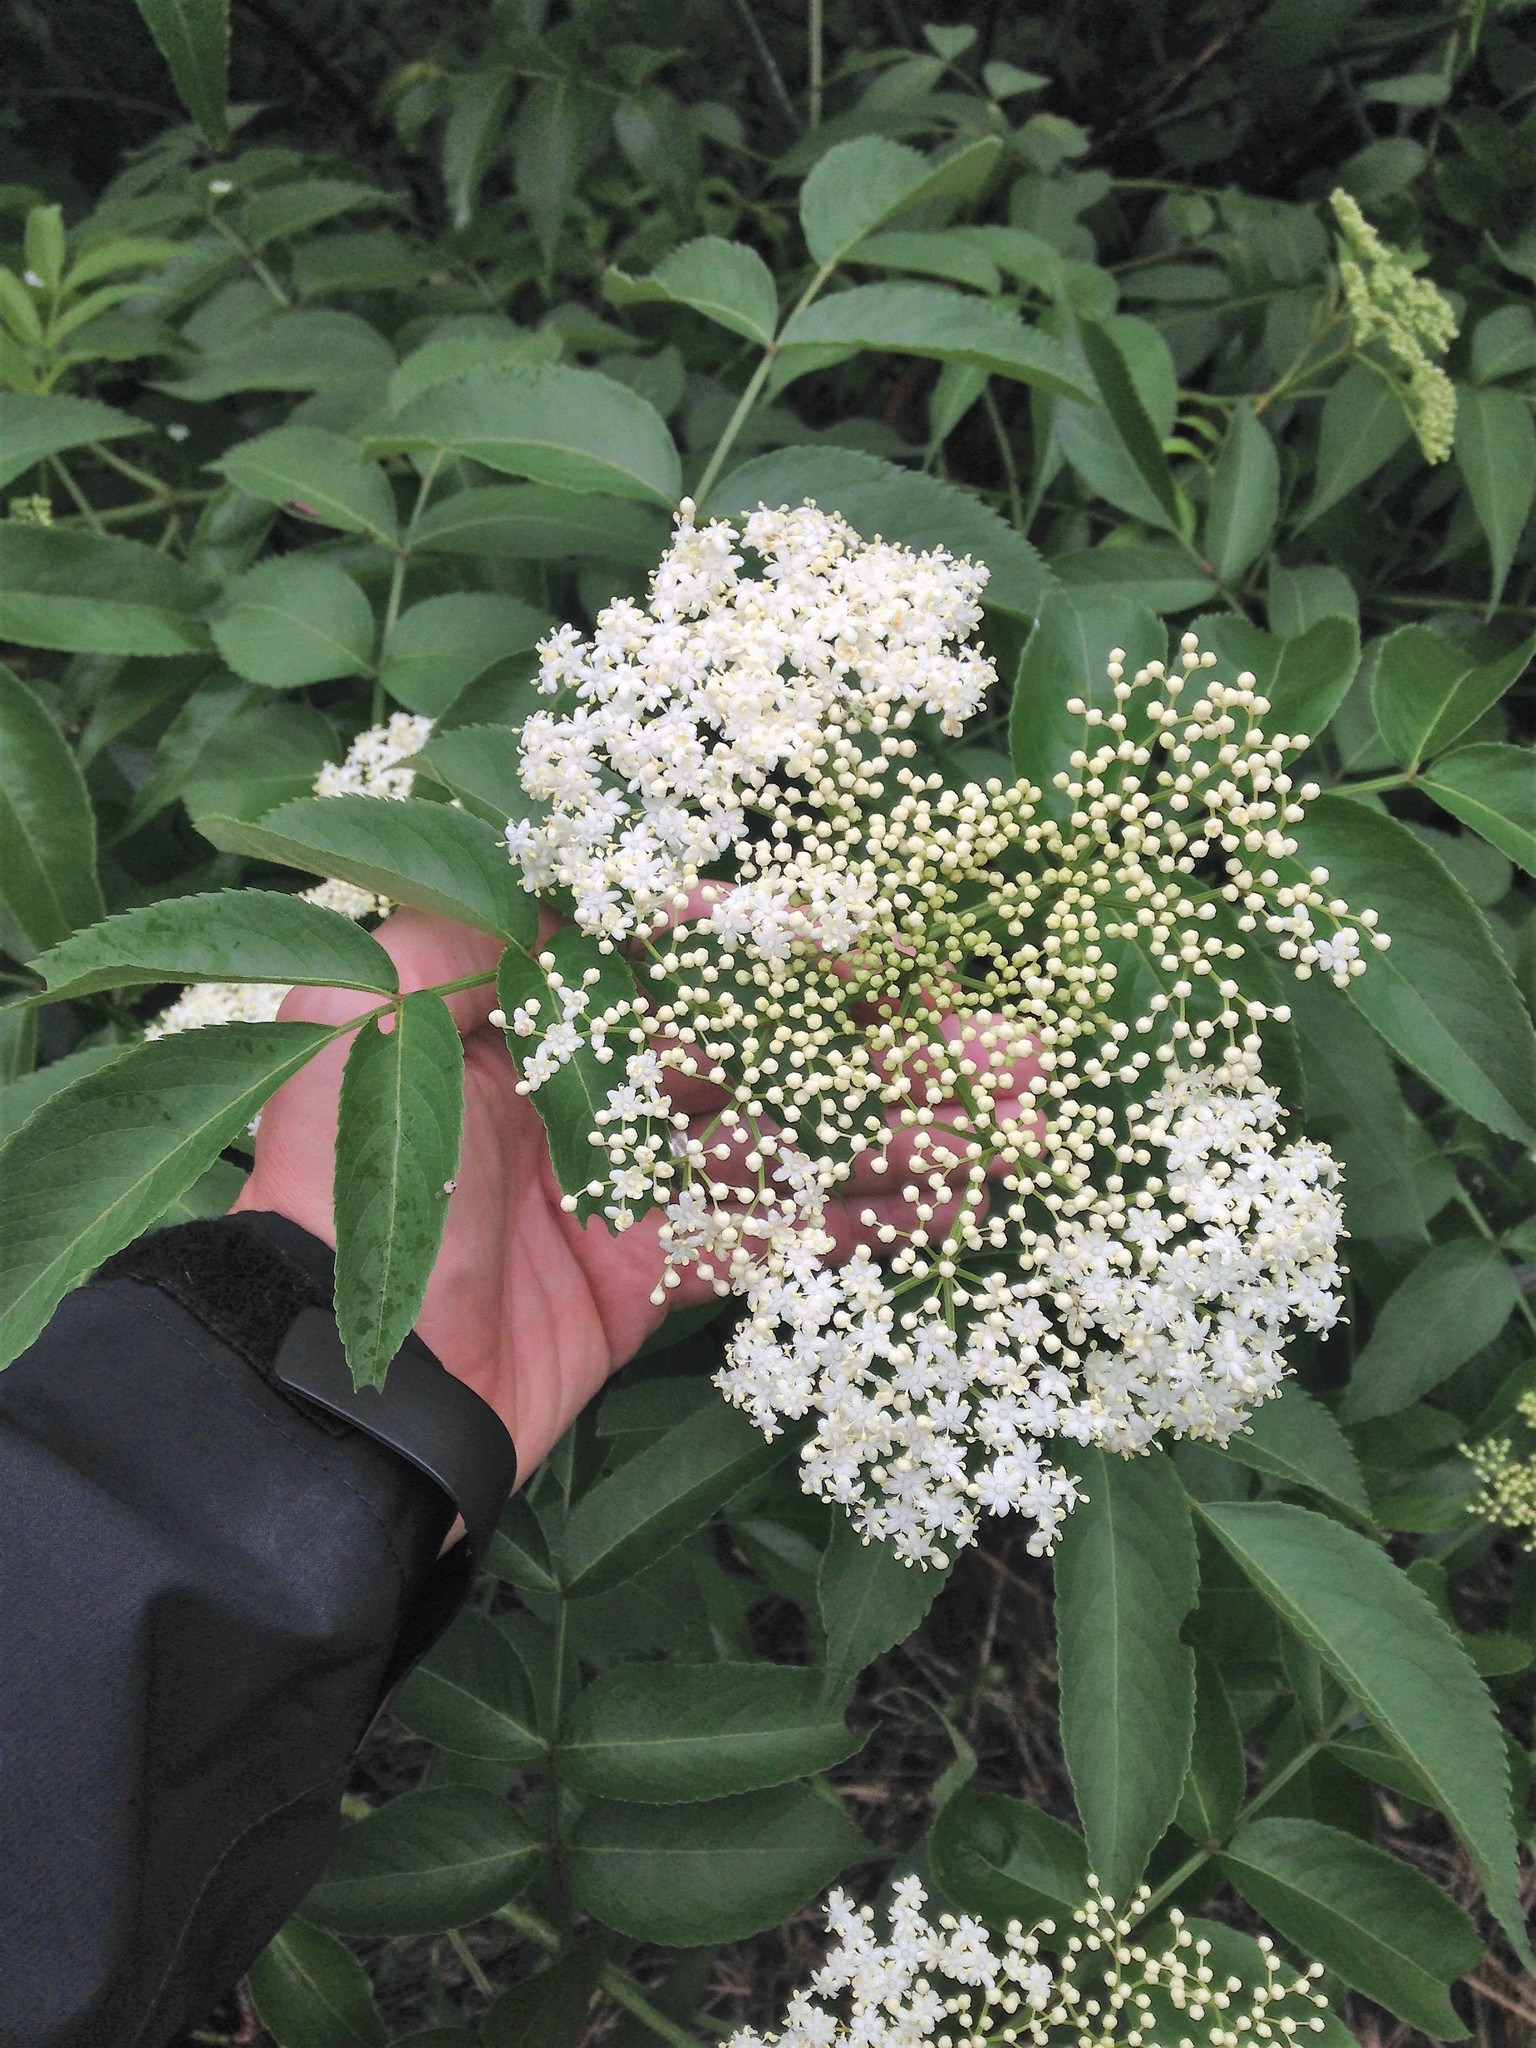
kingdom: Plantae
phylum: Tracheophyta
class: Magnoliopsida
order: Dipsacales
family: Viburnaceae
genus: Sambucus
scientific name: Sambucus canadensis
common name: American elder
